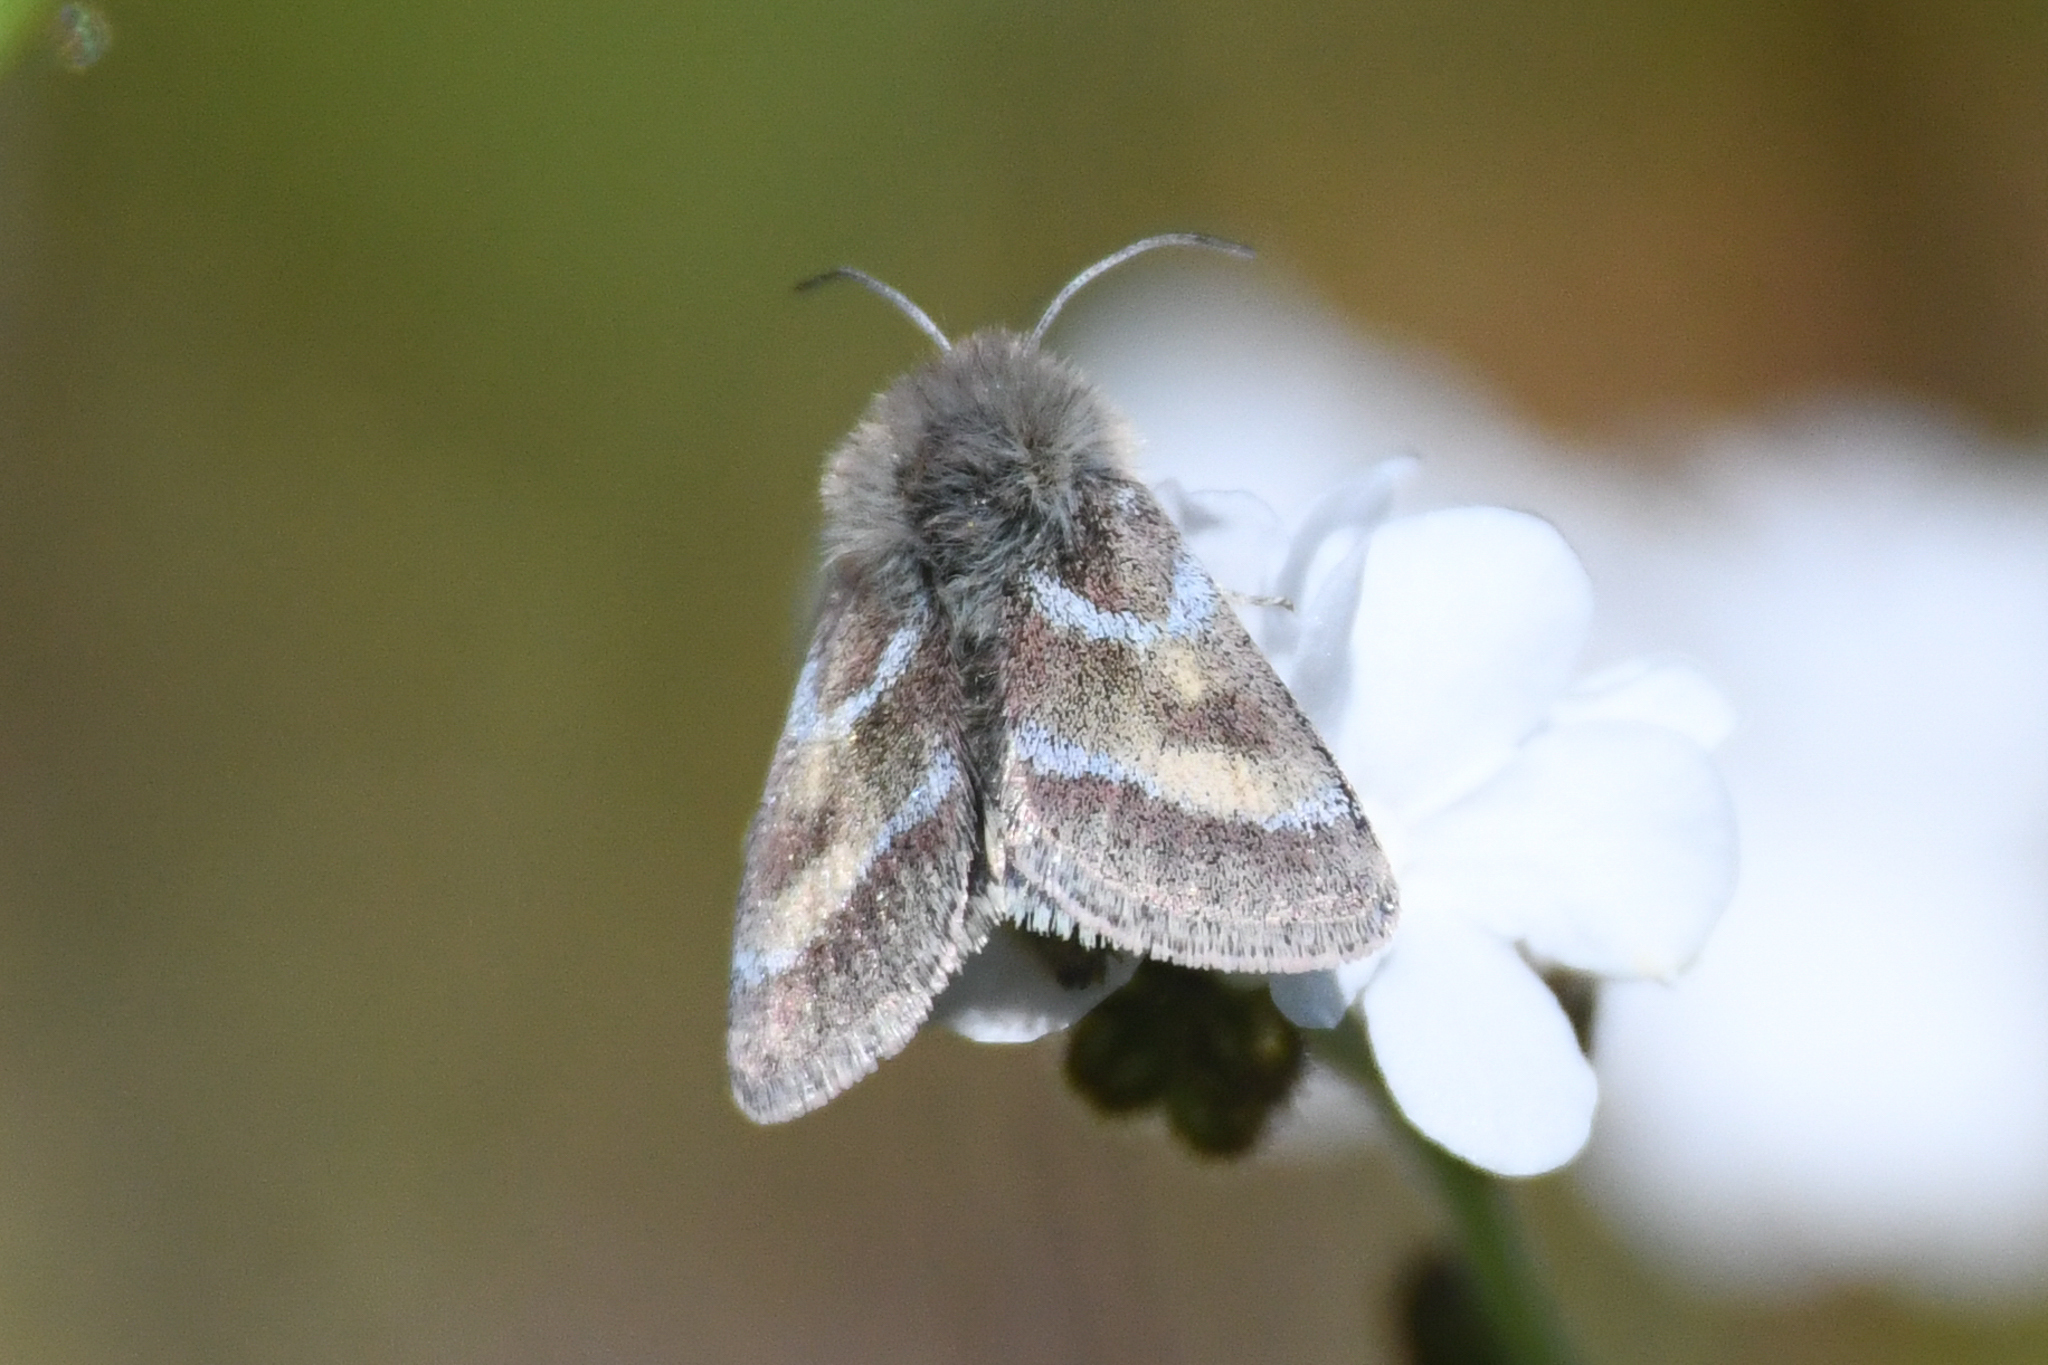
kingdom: Animalia
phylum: Arthropoda
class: Insecta
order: Lepidoptera
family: Noctuidae
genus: Schinia
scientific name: Schinia pulchripennis
